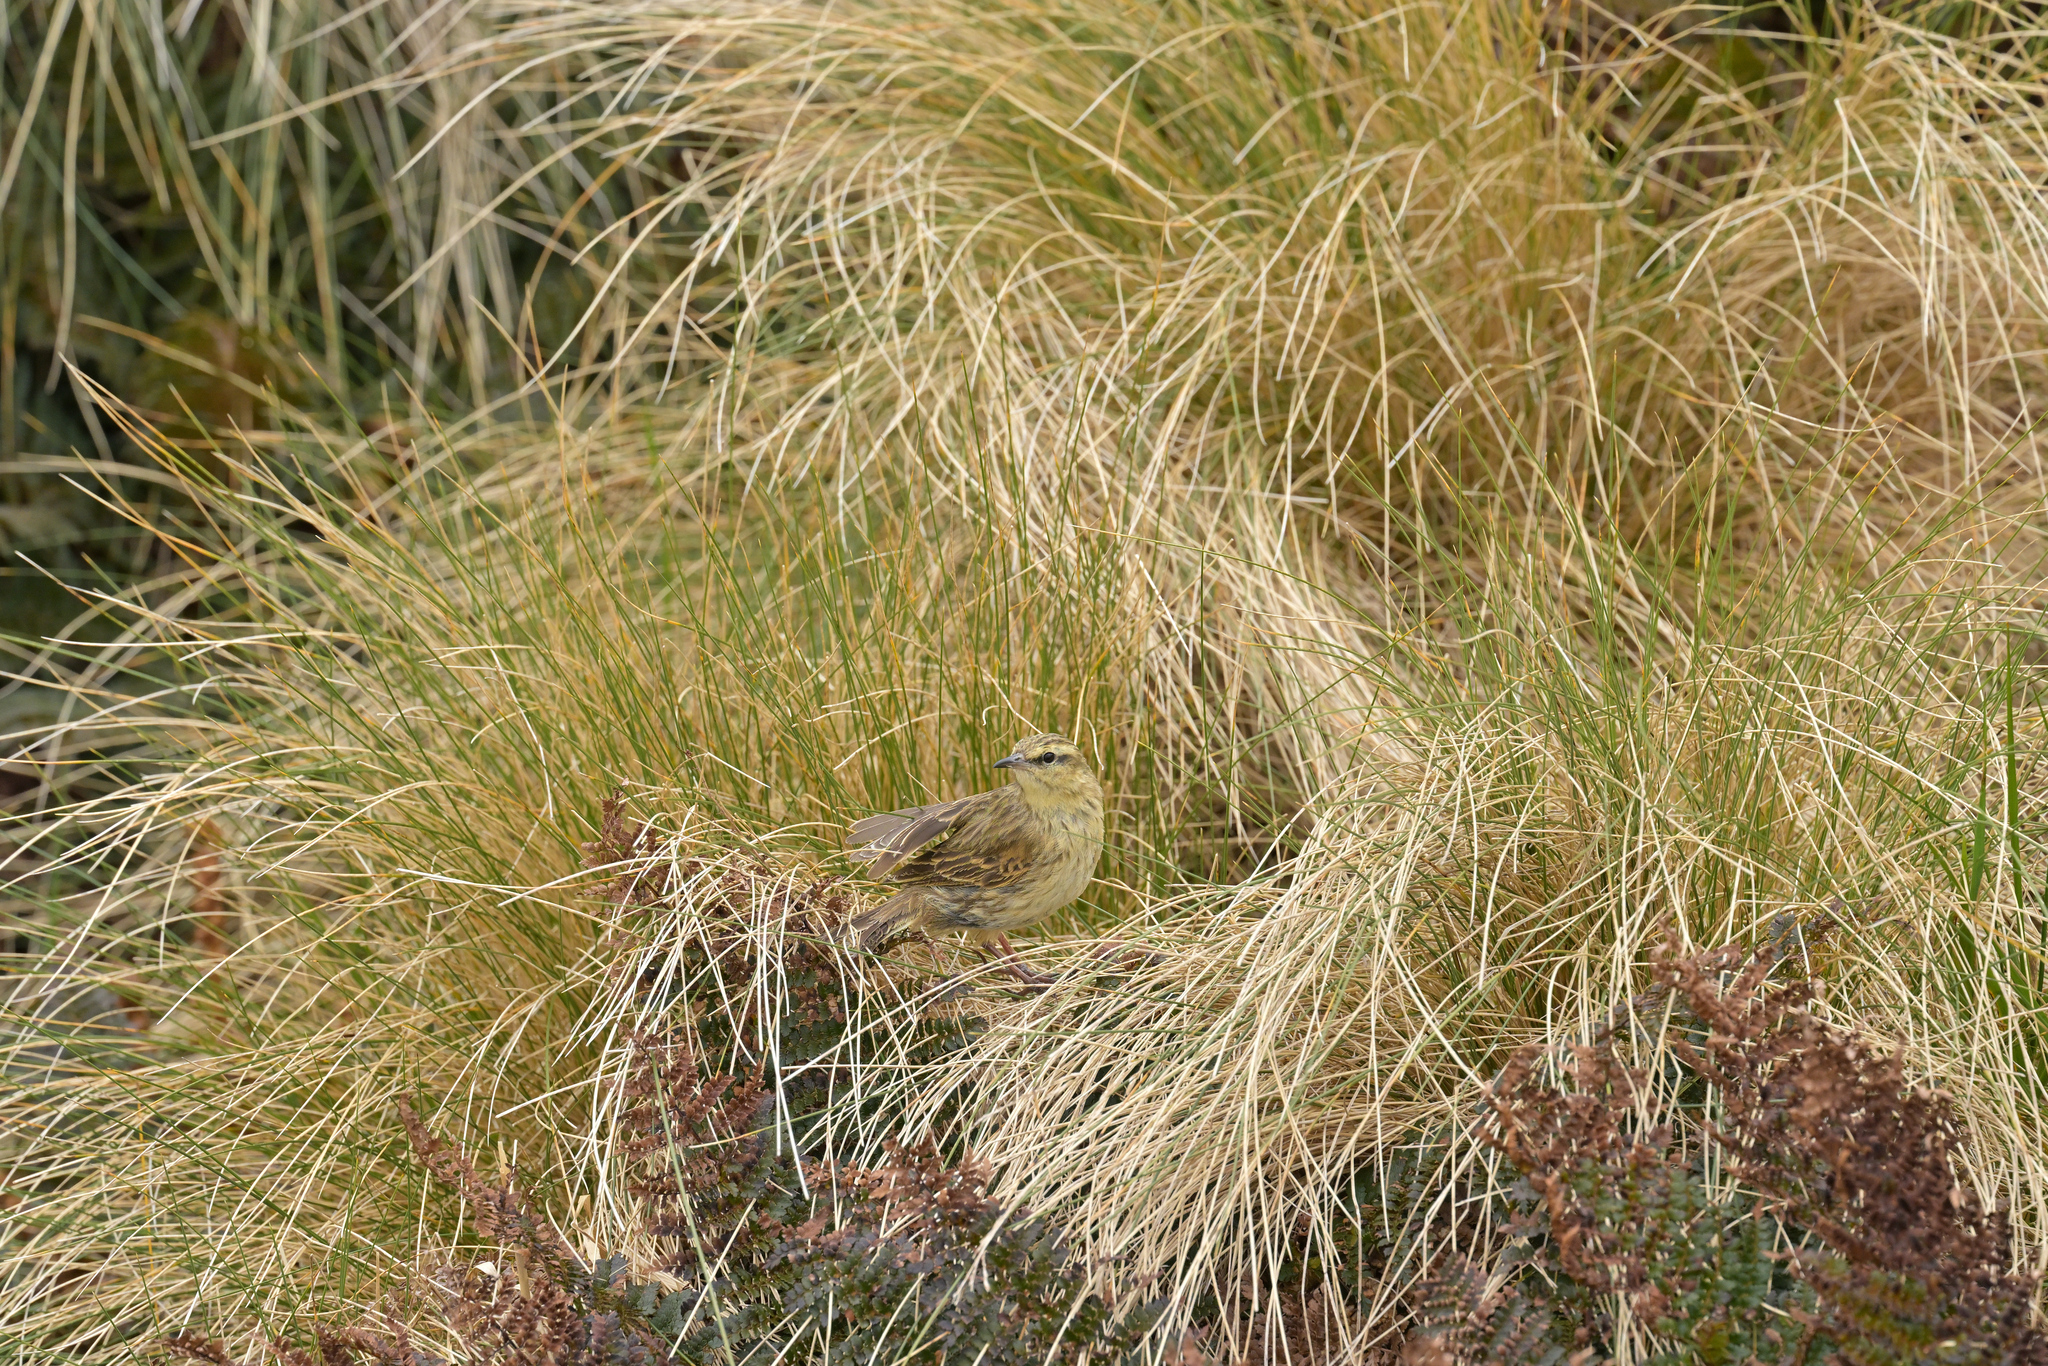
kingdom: Animalia
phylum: Chordata
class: Aves
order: Passeriformes
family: Motacillidae
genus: Anthus
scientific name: Anthus novaeseelandiae
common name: New zealand pipit
